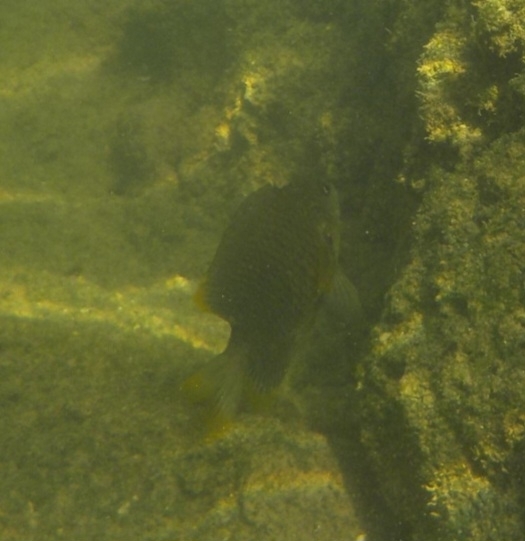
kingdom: Animalia
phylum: Chordata
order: Perciformes
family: Pomacentridae
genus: Stegastes
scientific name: Stegastes otophorus
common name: Freshwater gregory
